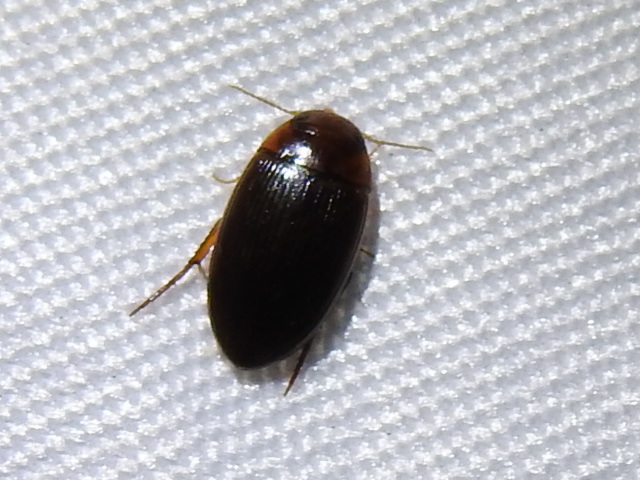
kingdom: Animalia
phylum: Arthropoda
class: Insecta
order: Coleoptera
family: Dytiscidae
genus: Copelatus
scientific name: Copelatus glyphicus
